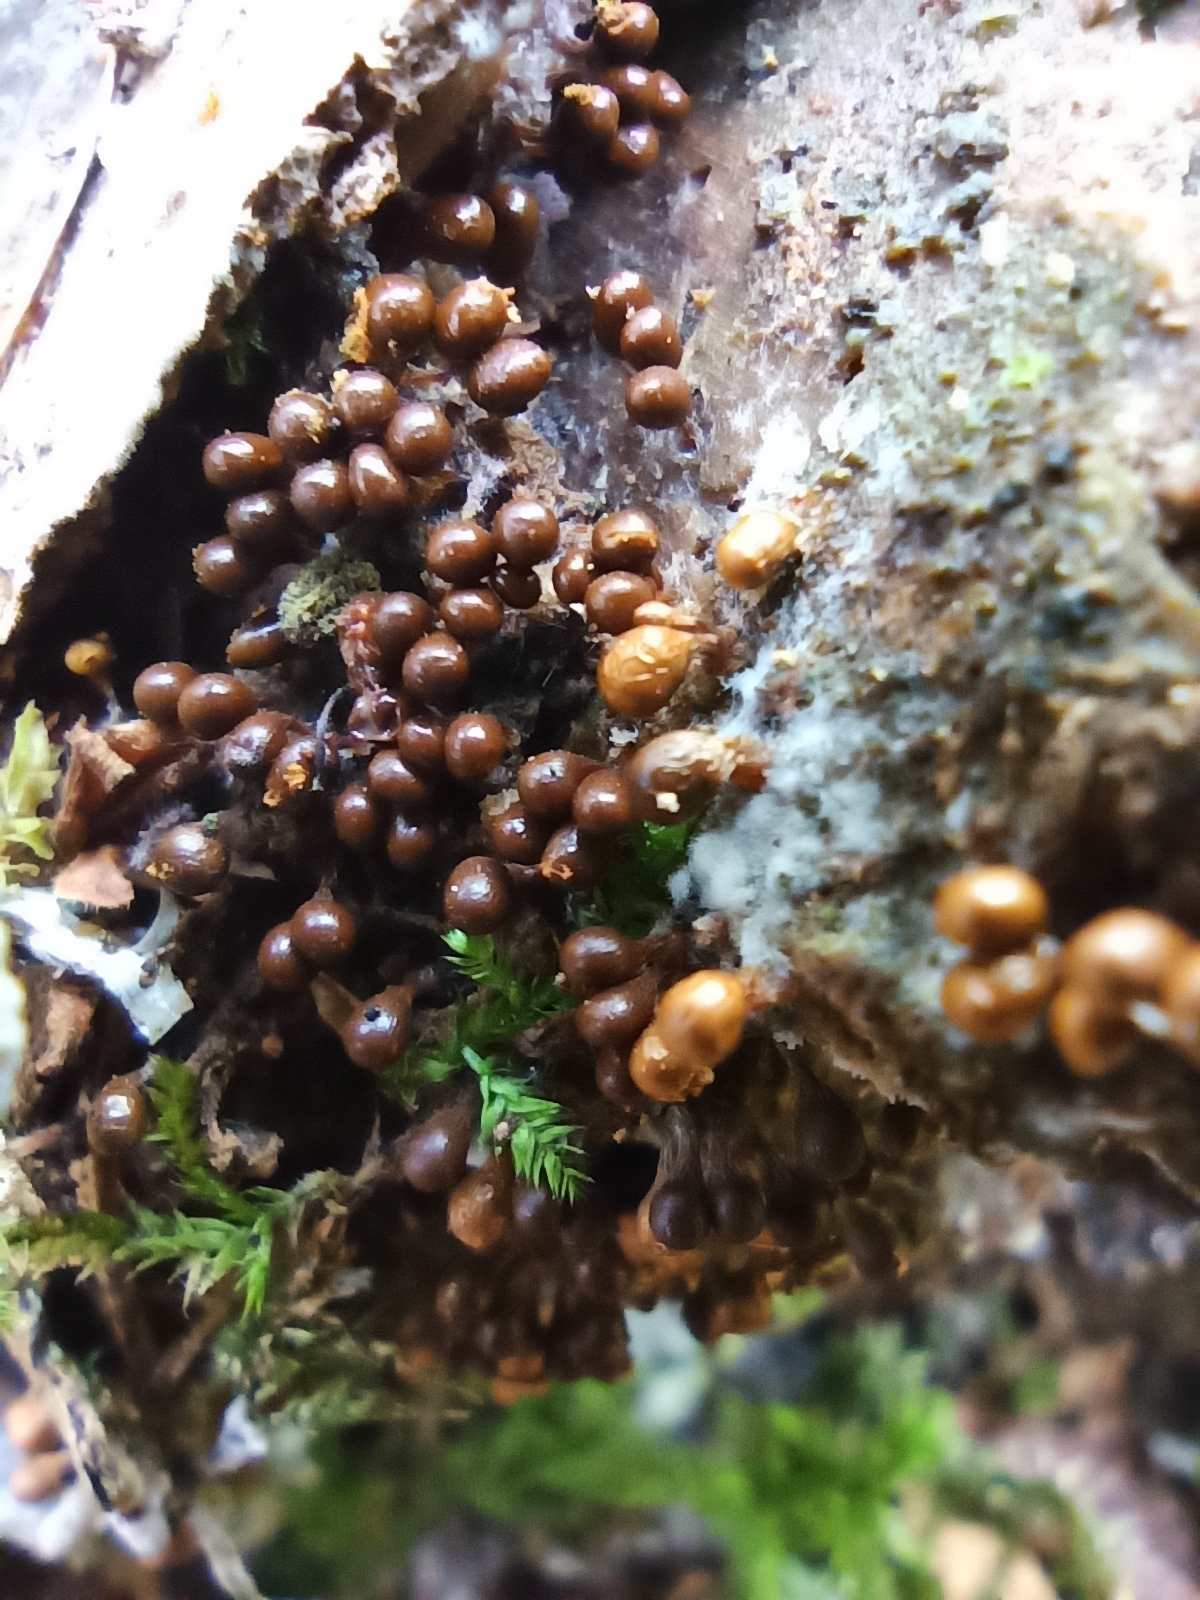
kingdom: Protozoa
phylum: Mycetozoa
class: Myxomycetes
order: Trichiales
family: Arcyriaceae
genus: Hemitrichia
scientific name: Hemitrichia decipiens
